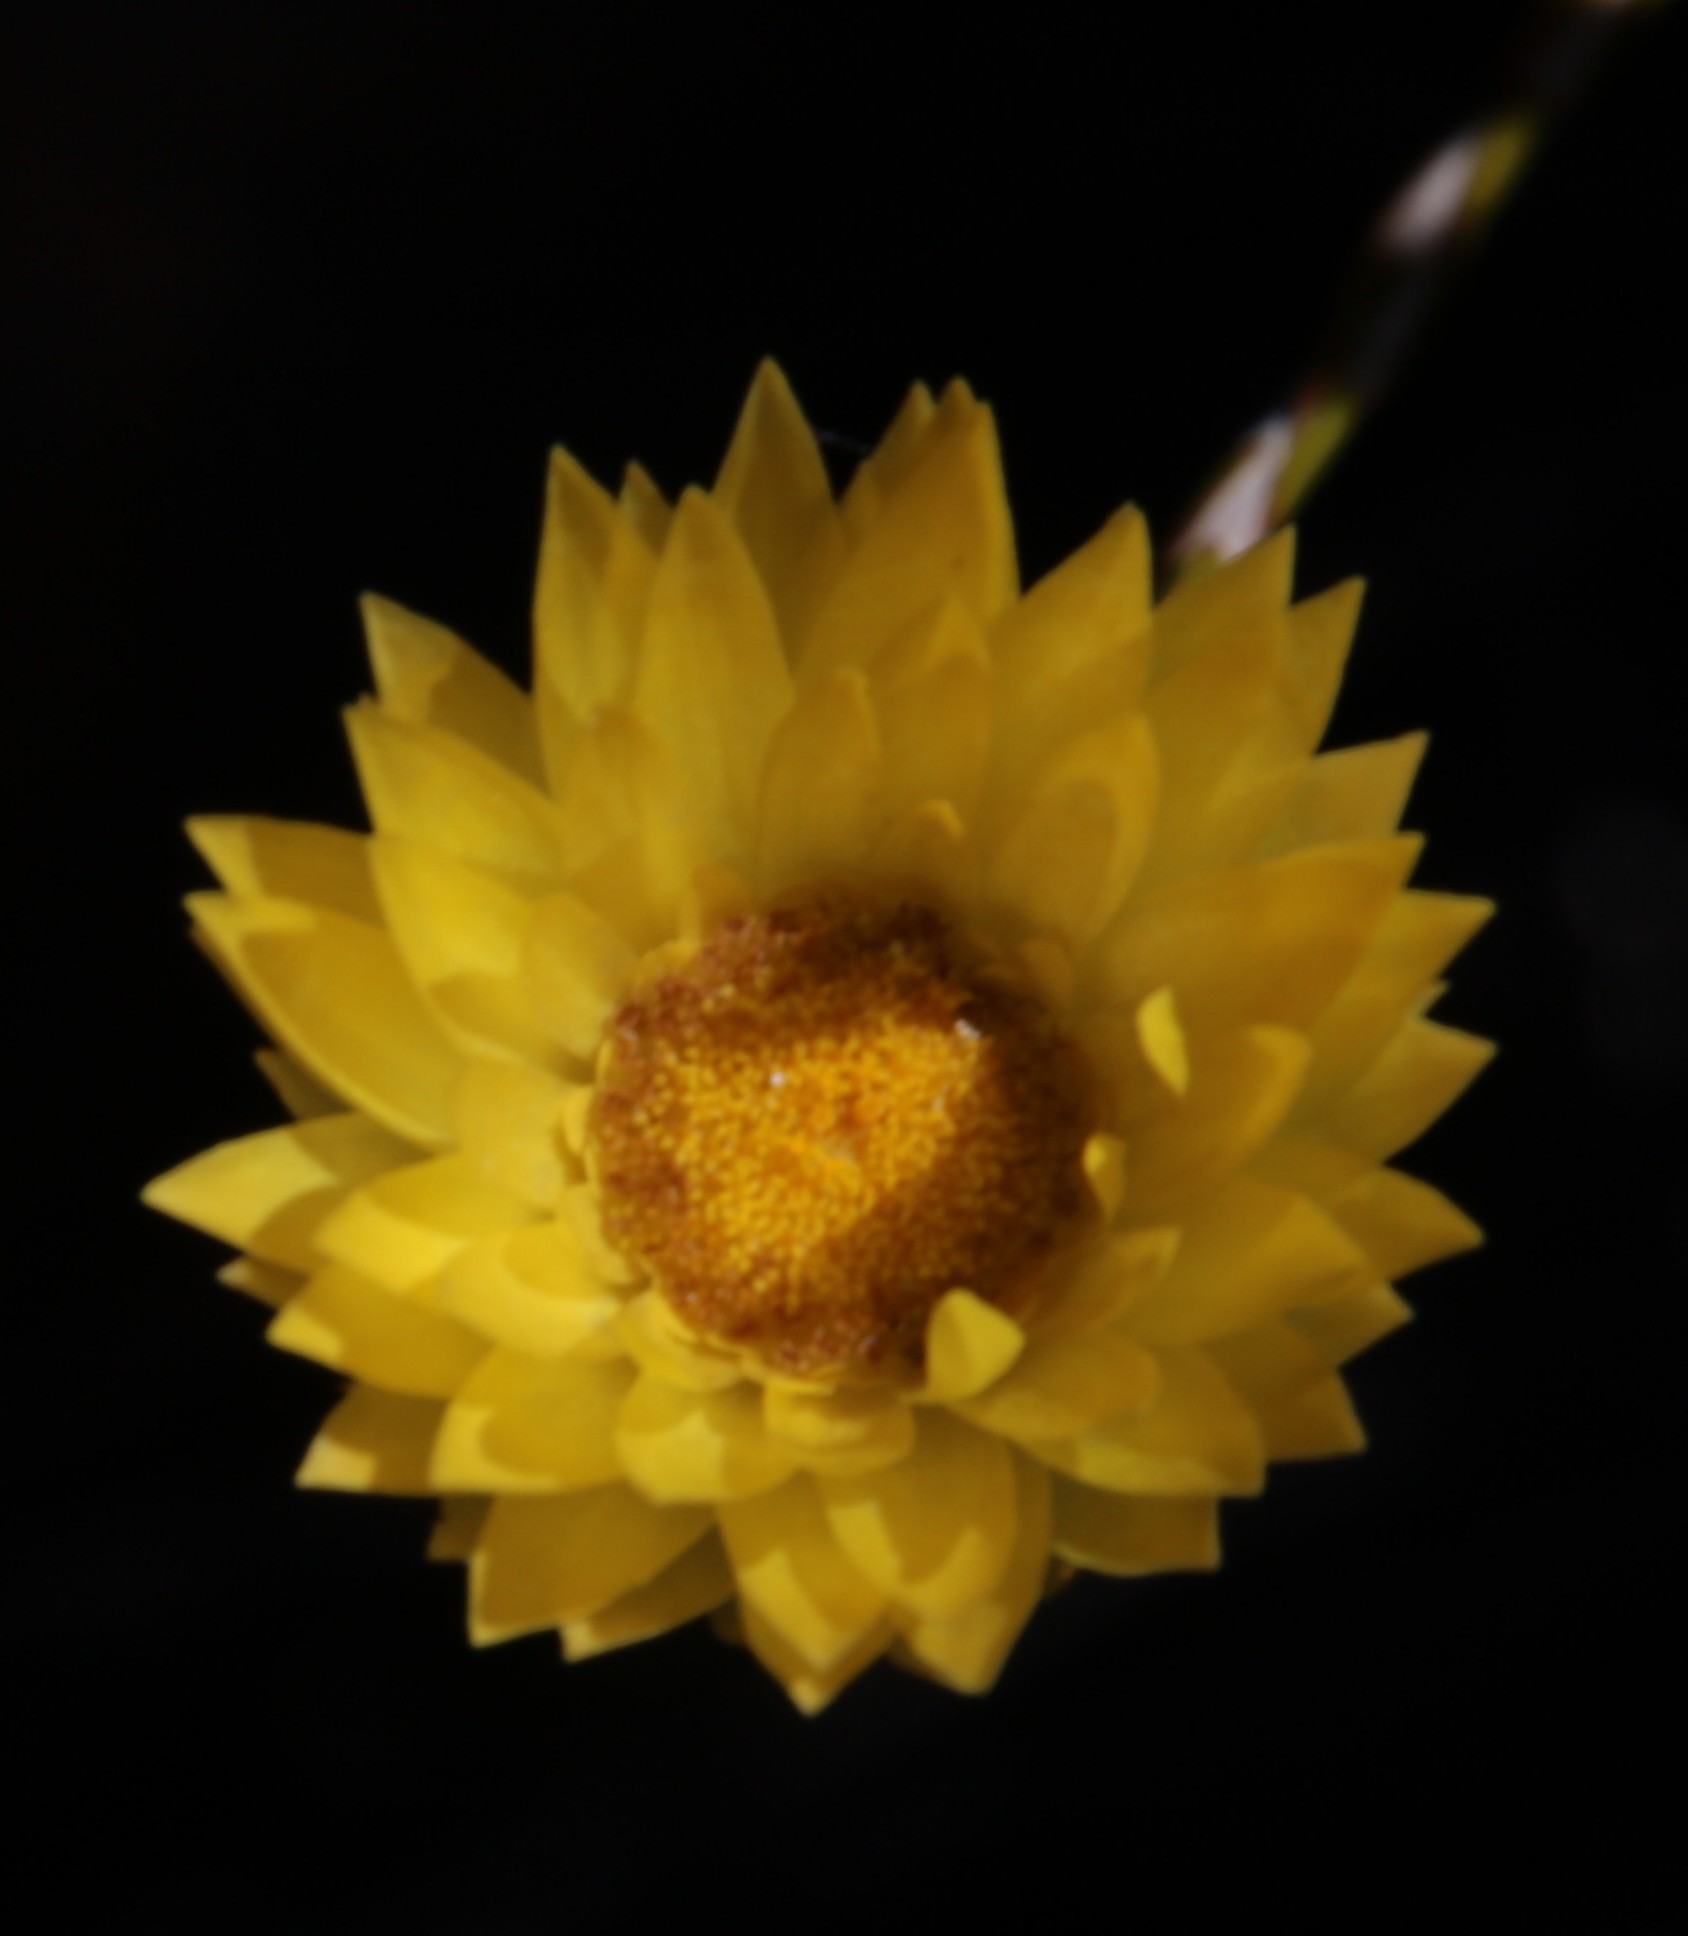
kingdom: Plantae
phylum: Tracheophyta
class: Magnoliopsida
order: Asterales
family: Asteraceae
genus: Edmondia
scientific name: Edmondia fasciculata
